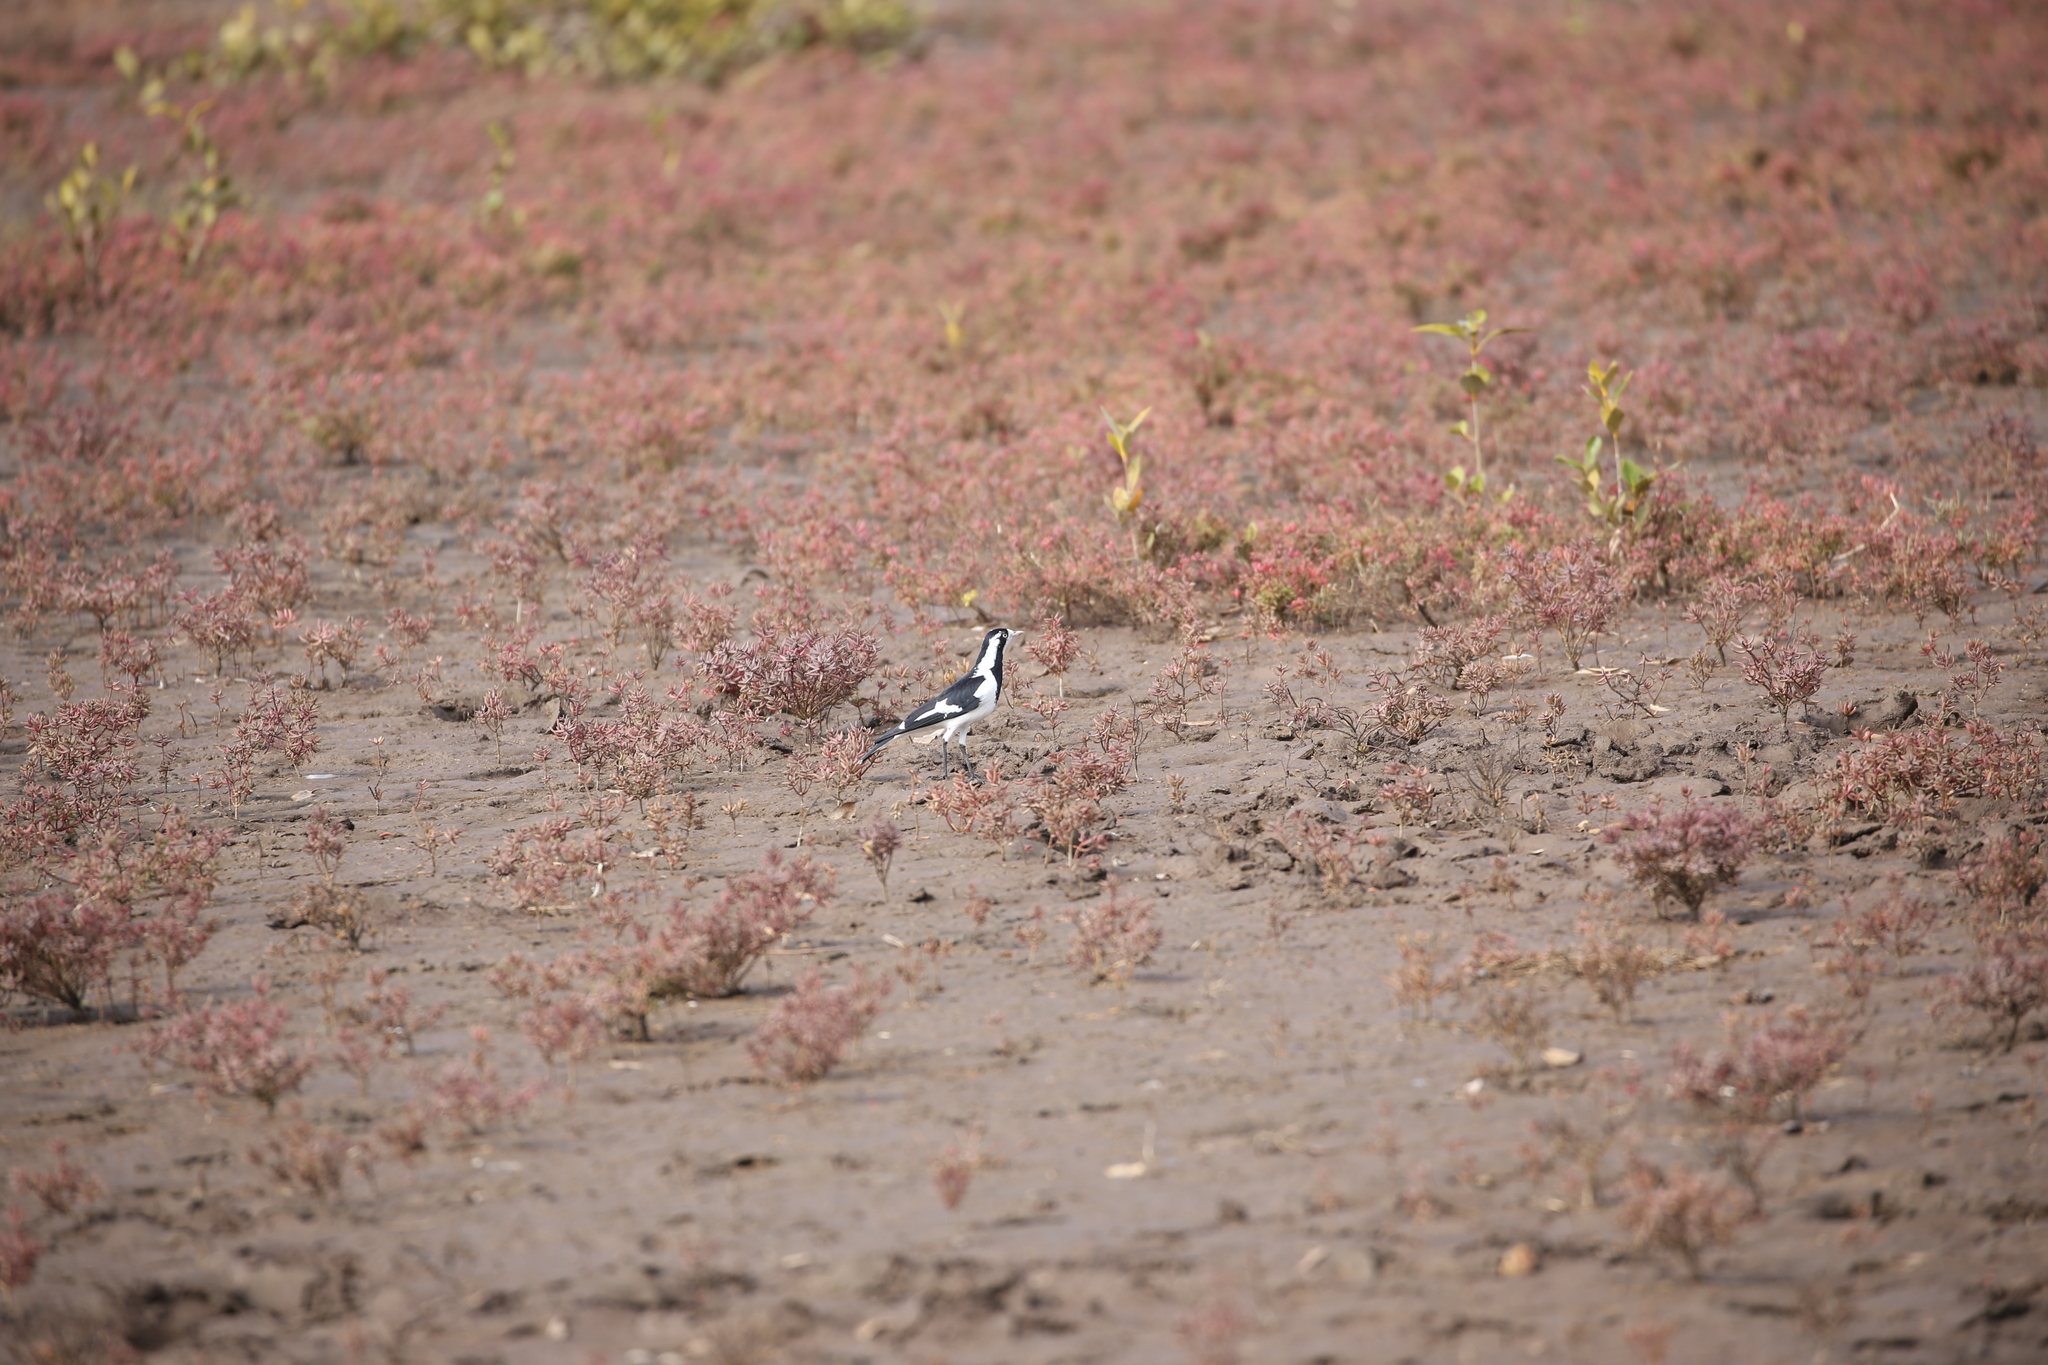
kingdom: Animalia
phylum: Chordata
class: Aves
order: Passeriformes
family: Monarchidae
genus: Grallina
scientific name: Grallina cyanoleuca
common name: Magpie-lark
